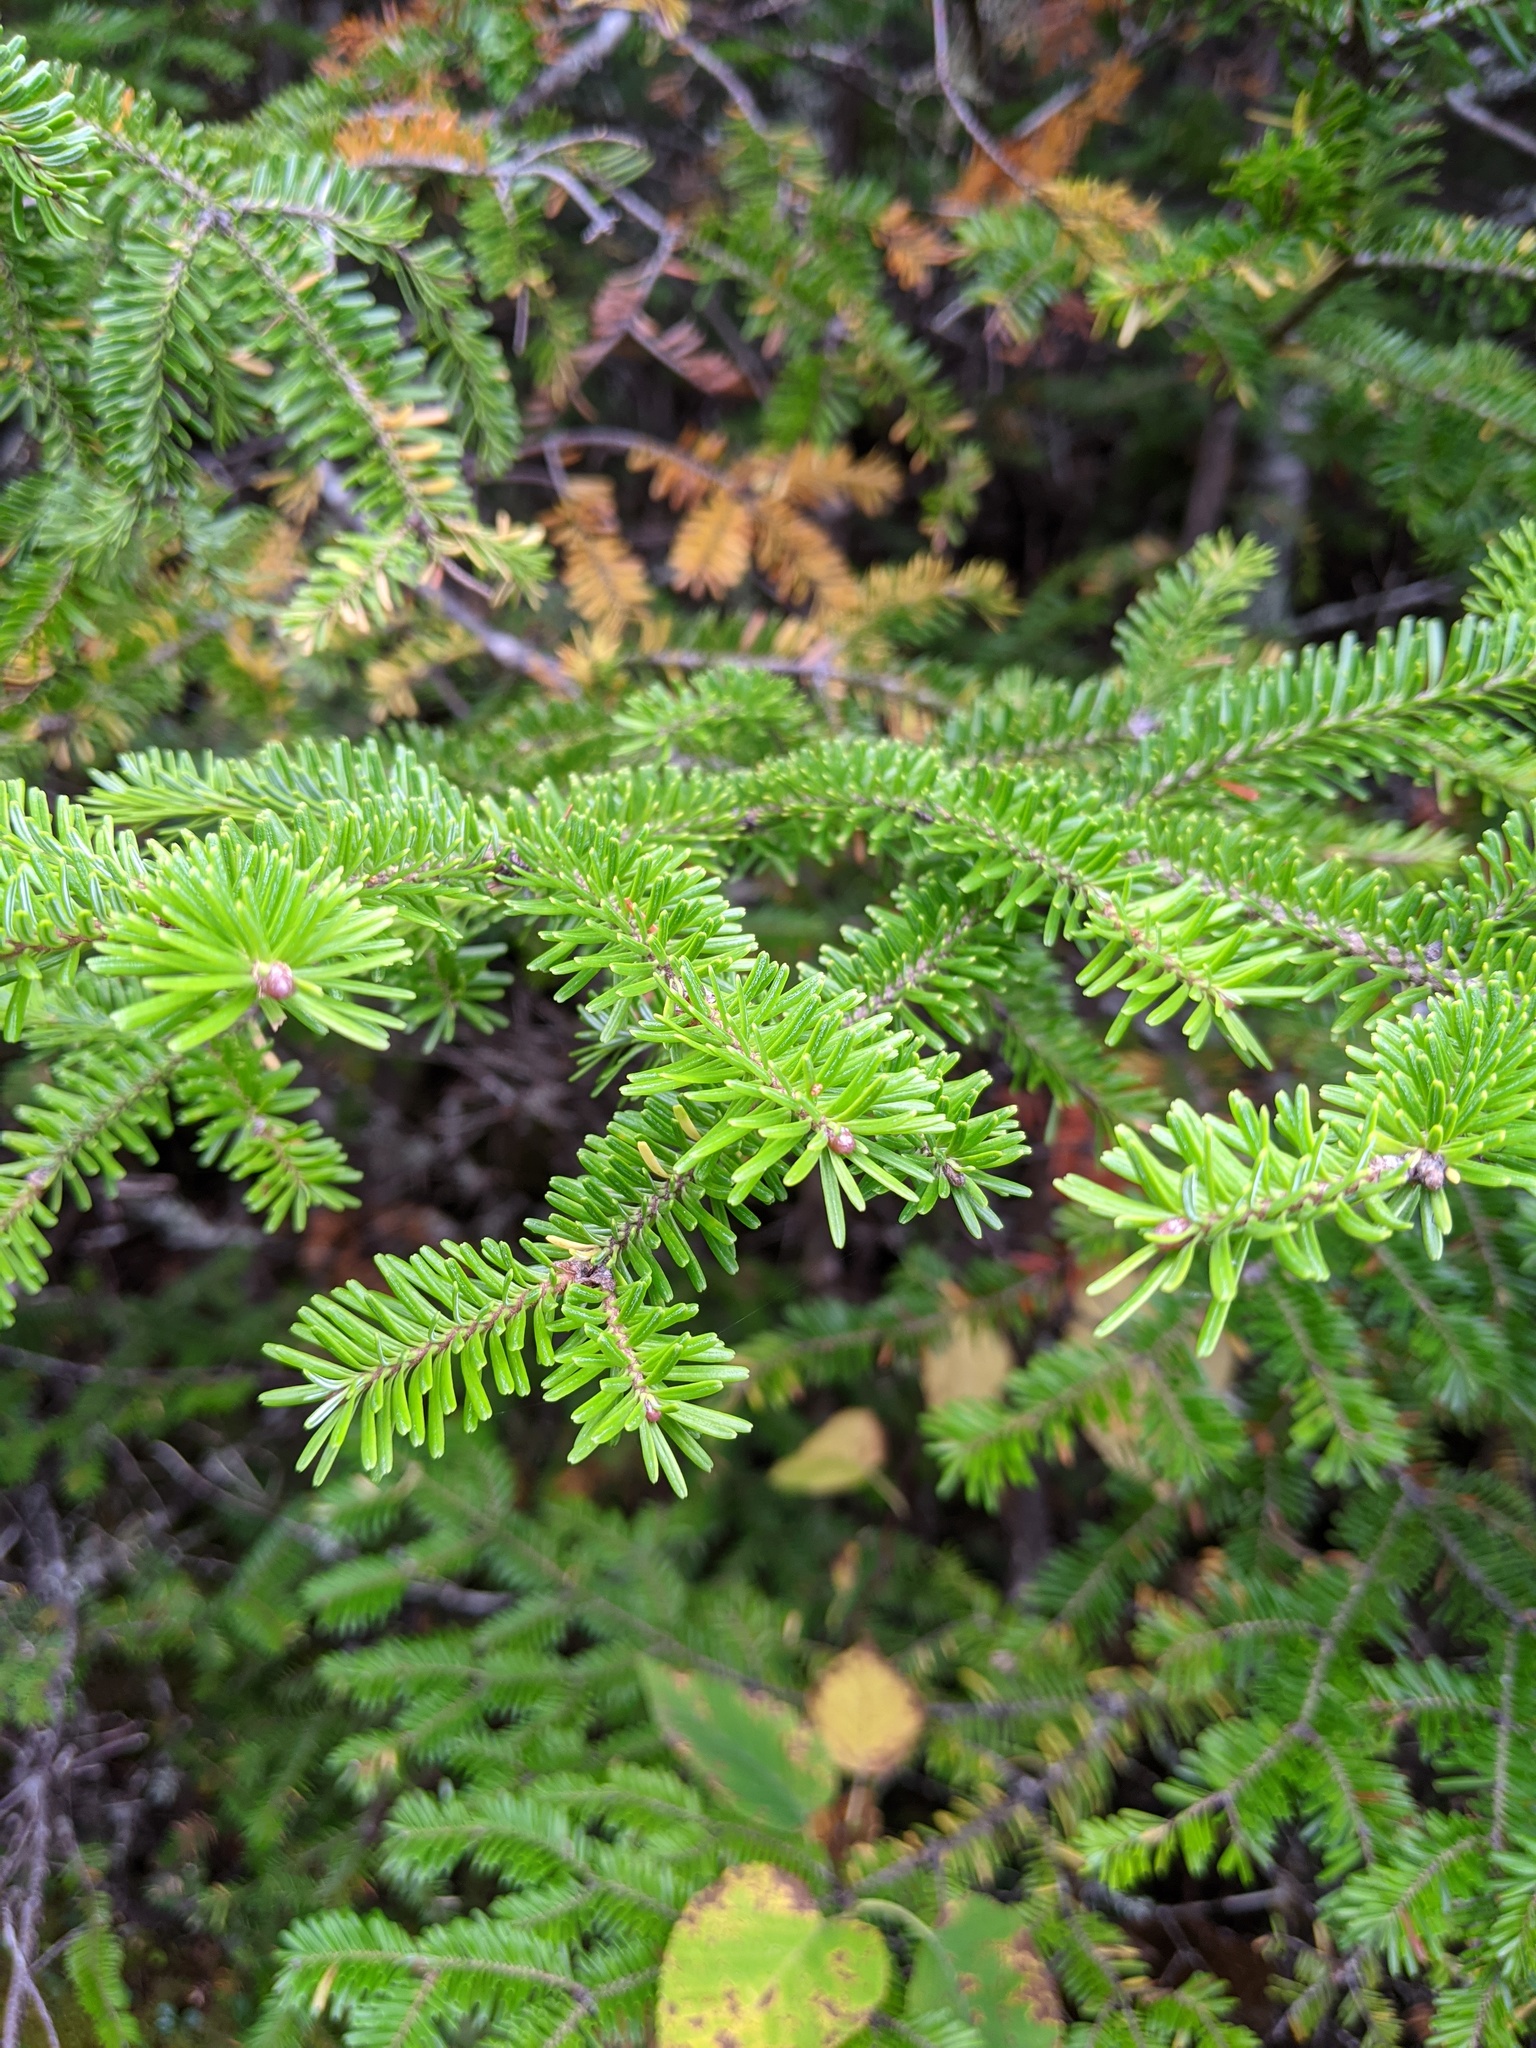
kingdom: Plantae
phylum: Tracheophyta
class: Pinopsida
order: Pinales
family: Pinaceae
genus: Abies
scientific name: Abies balsamea
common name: Balsam fir
